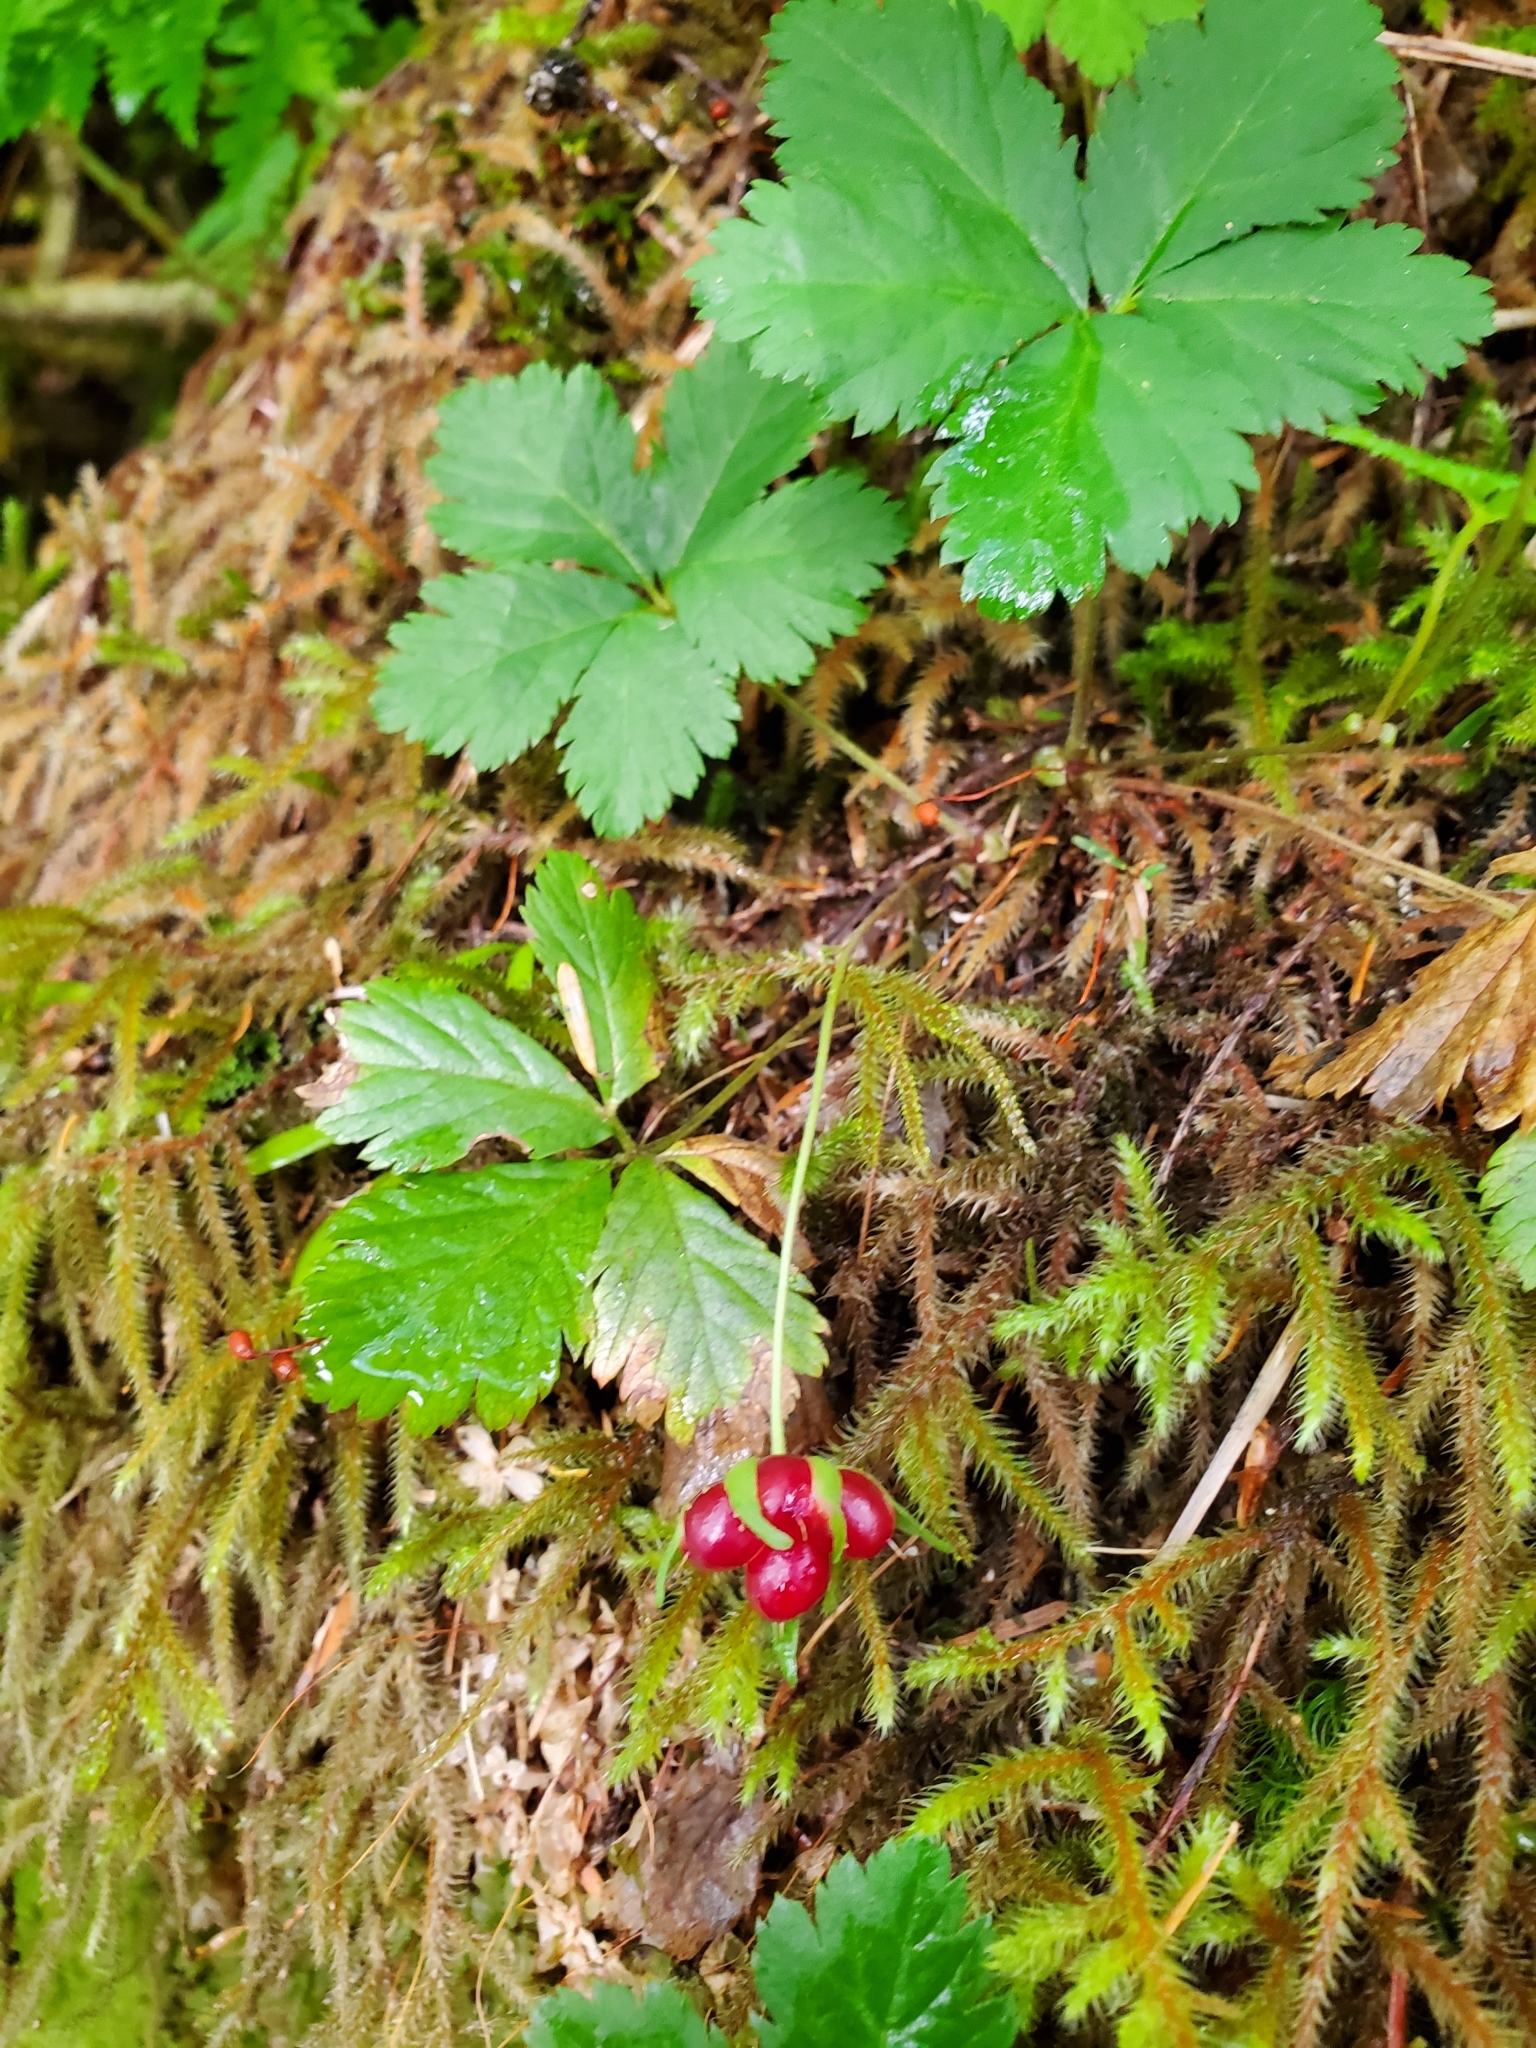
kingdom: Plantae
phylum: Tracheophyta
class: Magnoliopsida
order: Rosales
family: Rosaceae
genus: Rubus
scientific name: Rubus pedatus
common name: Creeping raspberry
